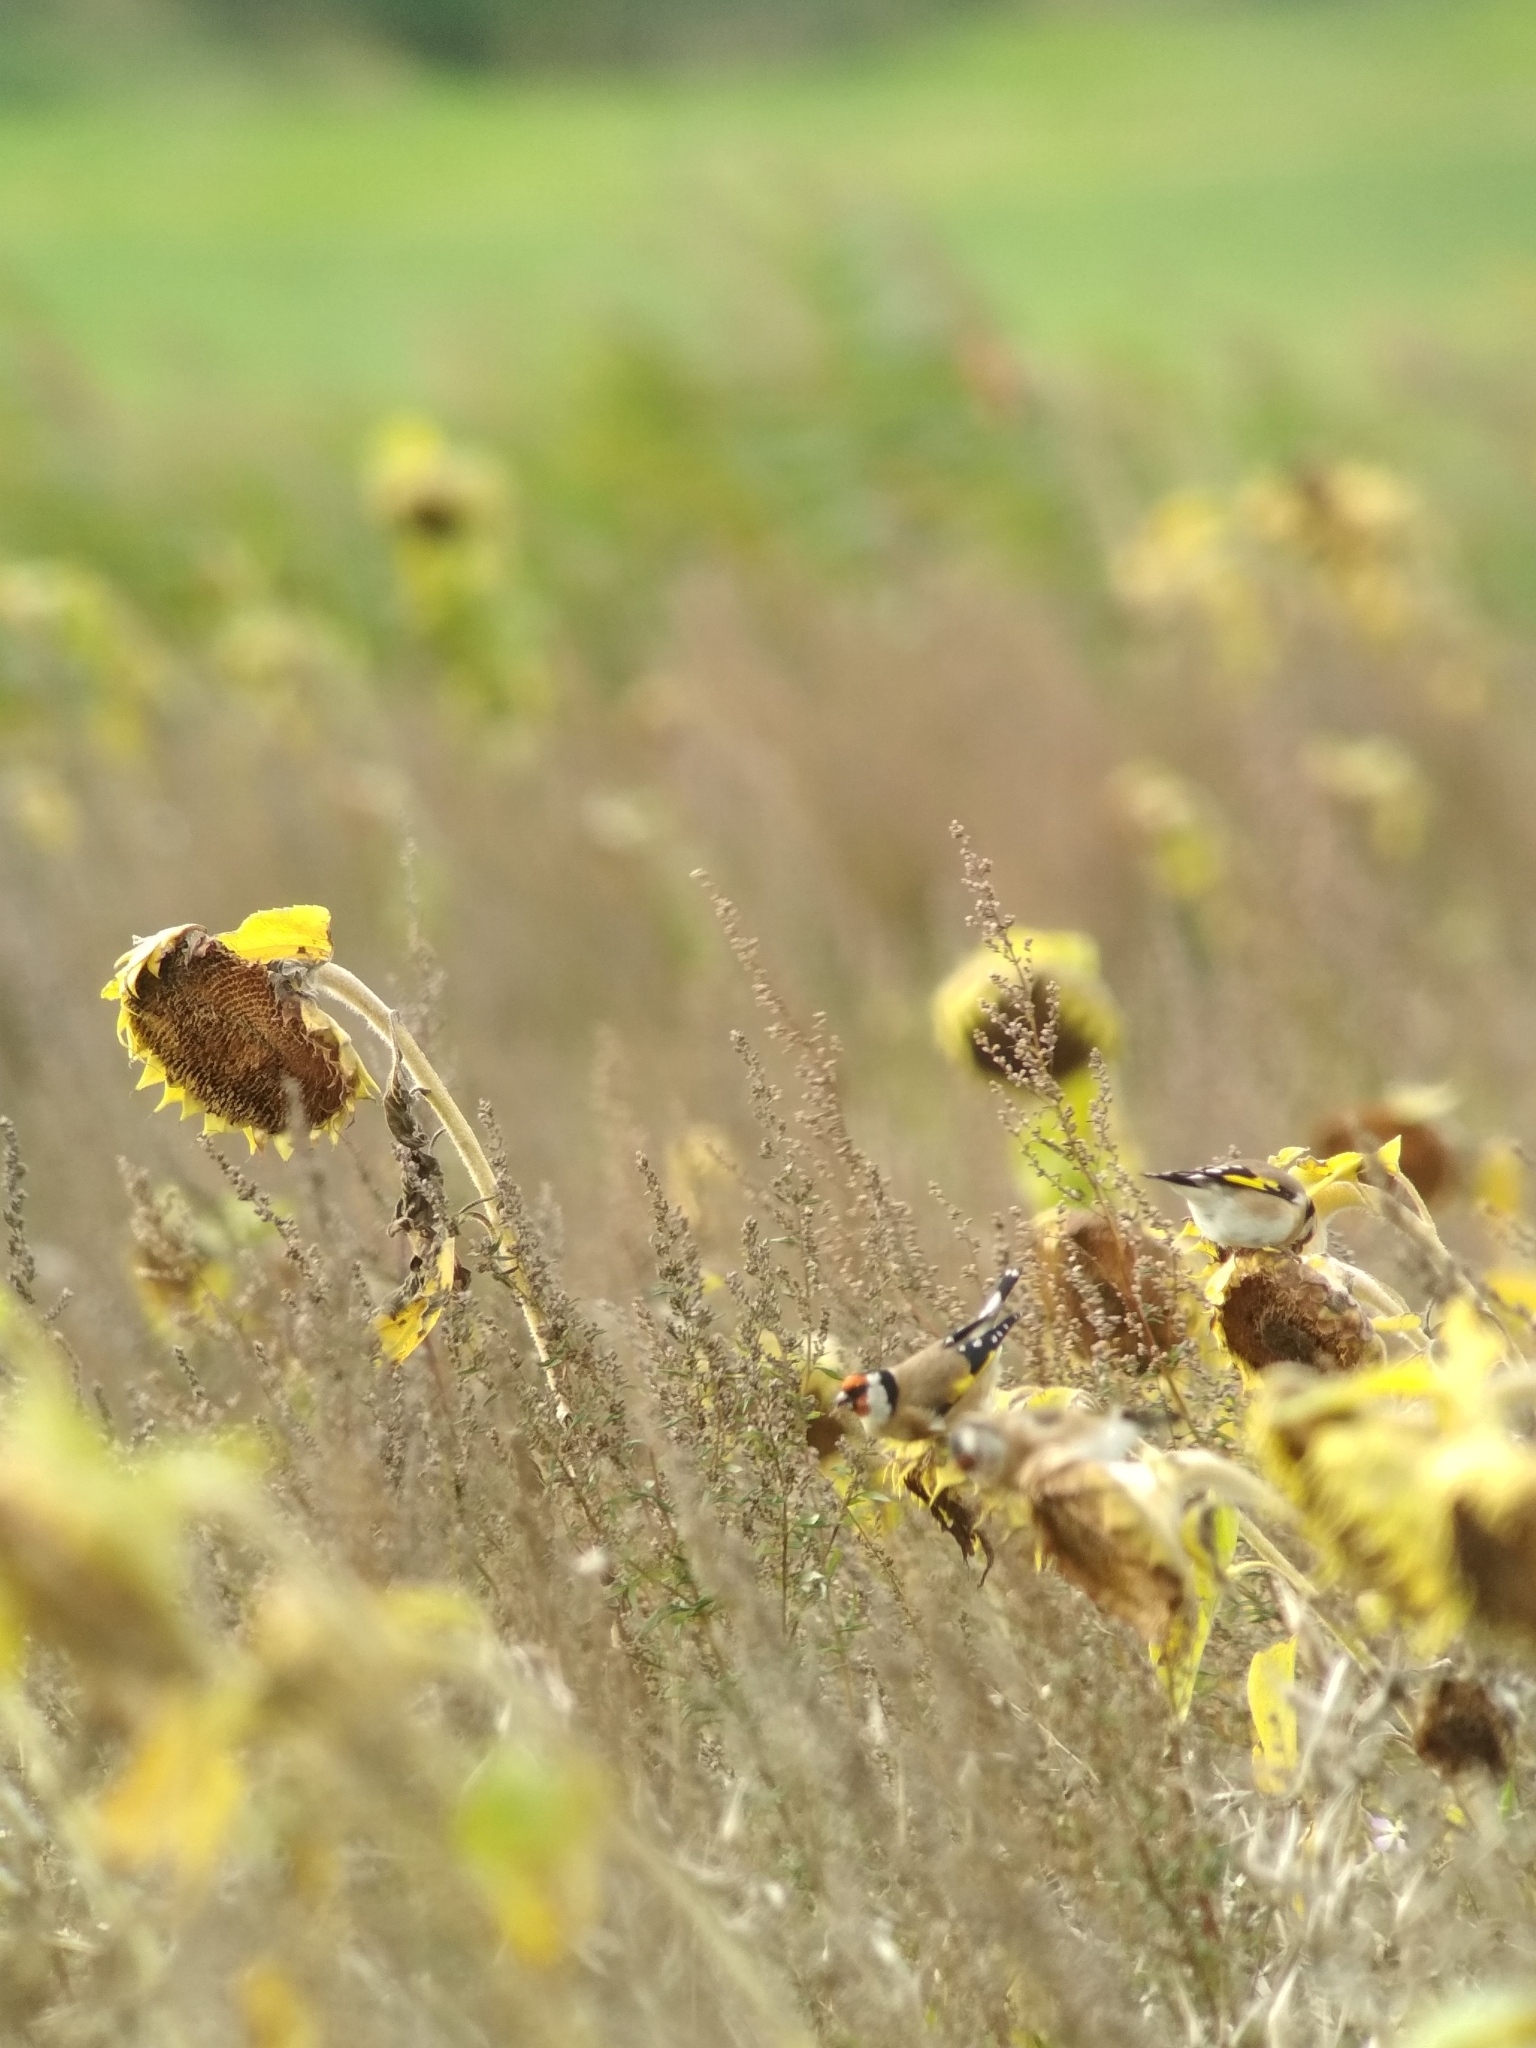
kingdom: Animalia
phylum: Chordata
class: Aves
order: Passeriformes
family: Fringillidae
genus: Carduelis
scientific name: Carduelis carduelis
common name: European goldfinch
